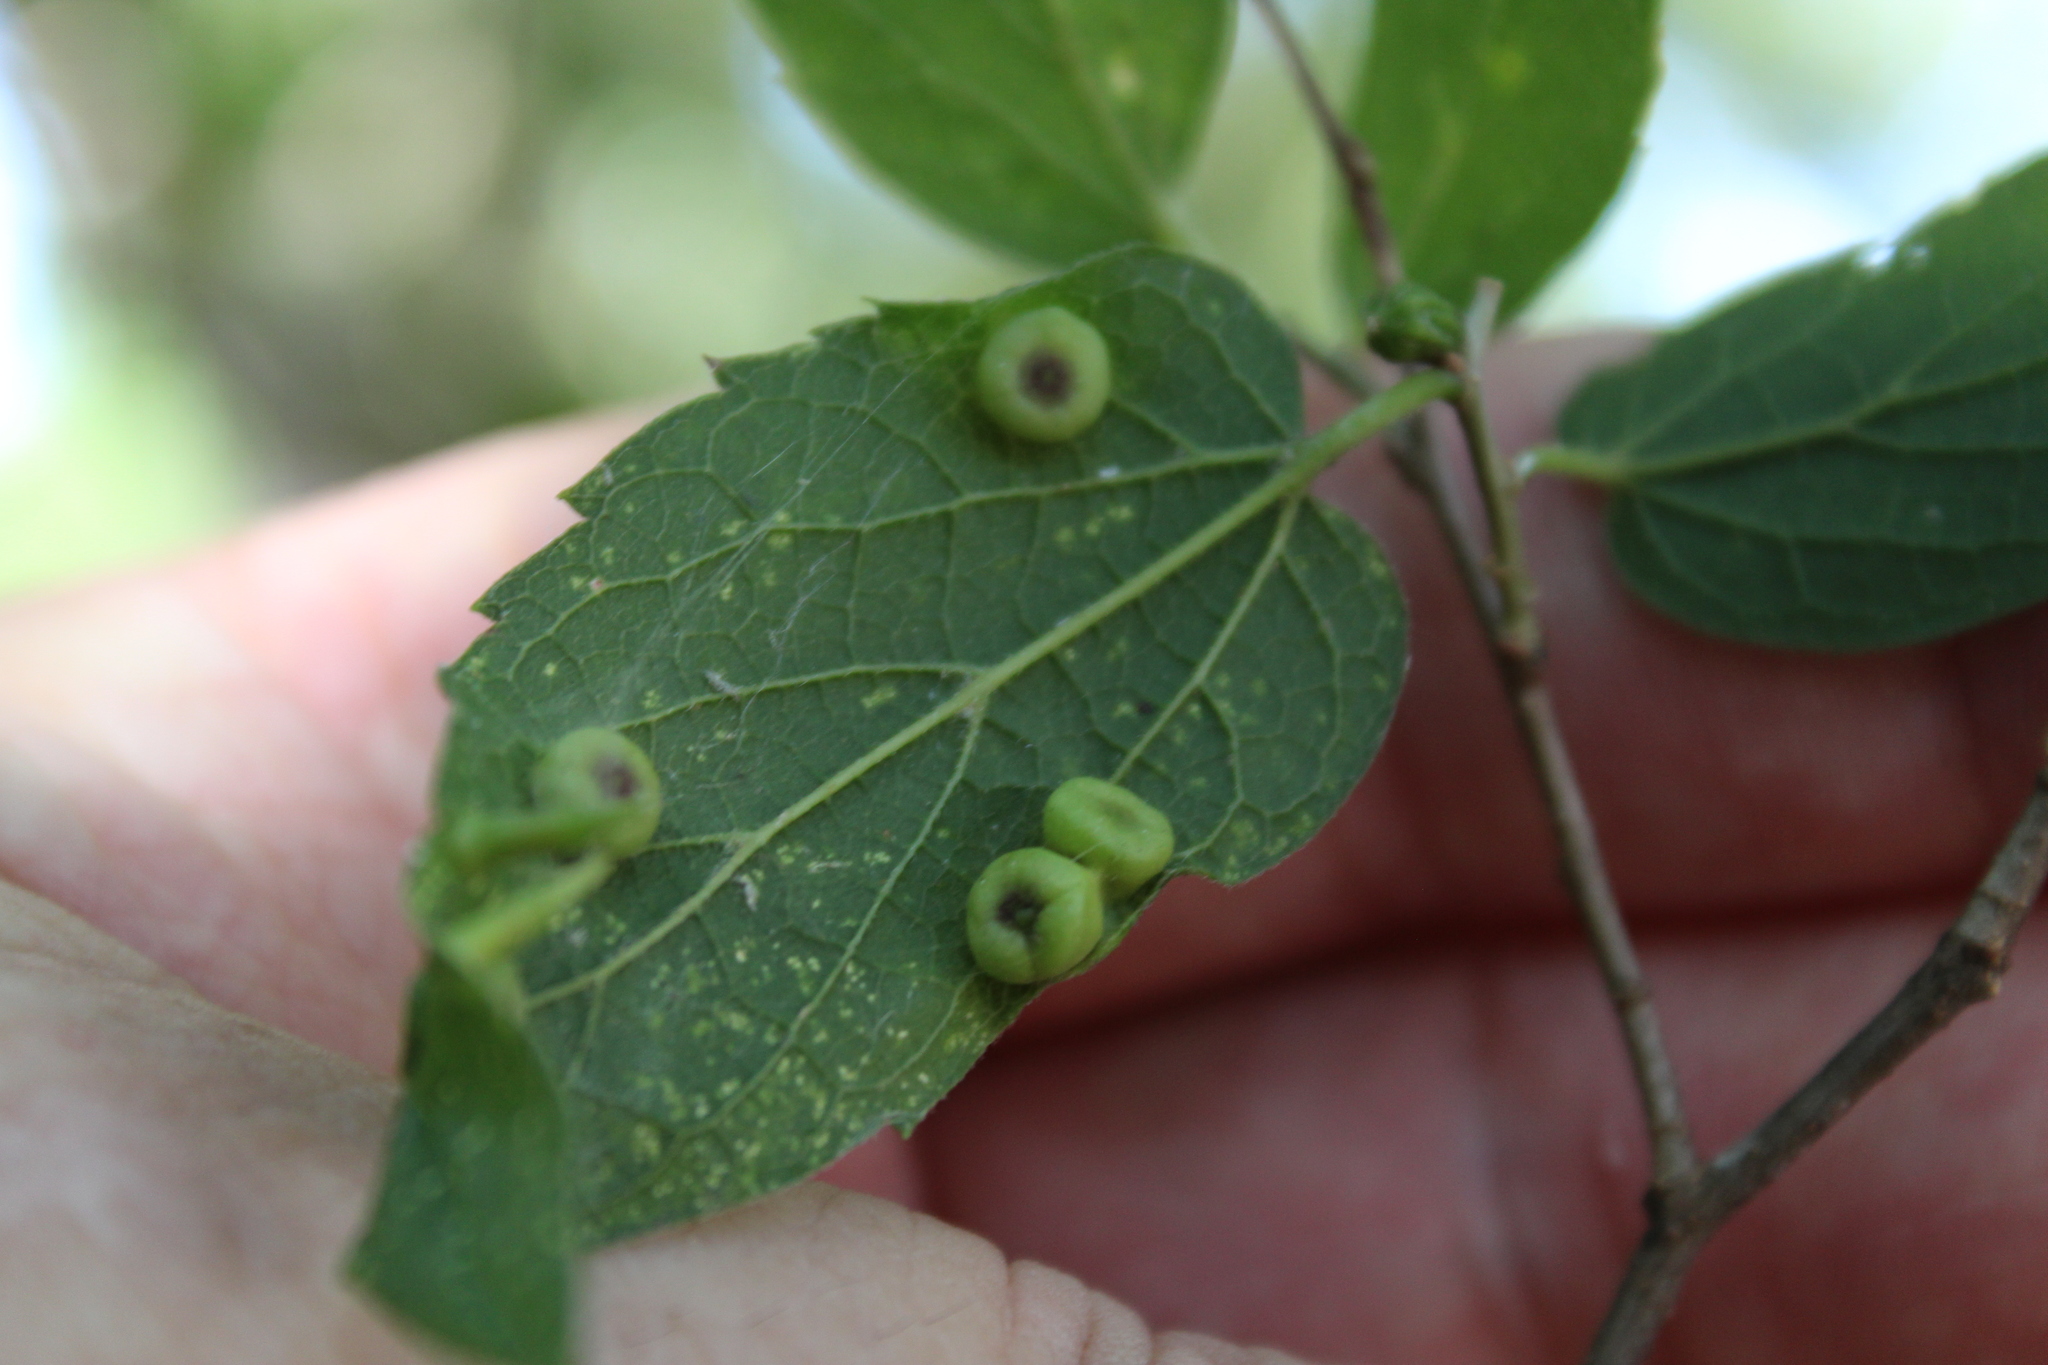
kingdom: Animalia
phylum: Arthropoda
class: Insecta
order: Hemiptera
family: Aphalaridae
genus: Pachypsylla
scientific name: Pachypsylla celtidismamma
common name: Hackberry nipplegall psyllid
